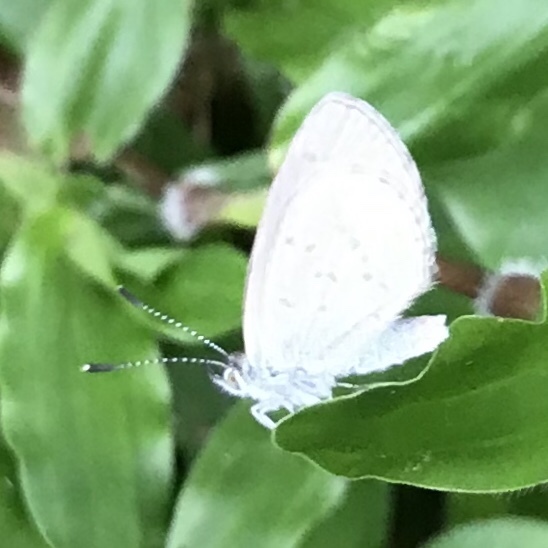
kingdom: Animalia
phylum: Arthropoda
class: Insecta
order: Lepidoptera
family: Lycaenidae
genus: Zizina
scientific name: Zizina otis
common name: Lesser grass blue
